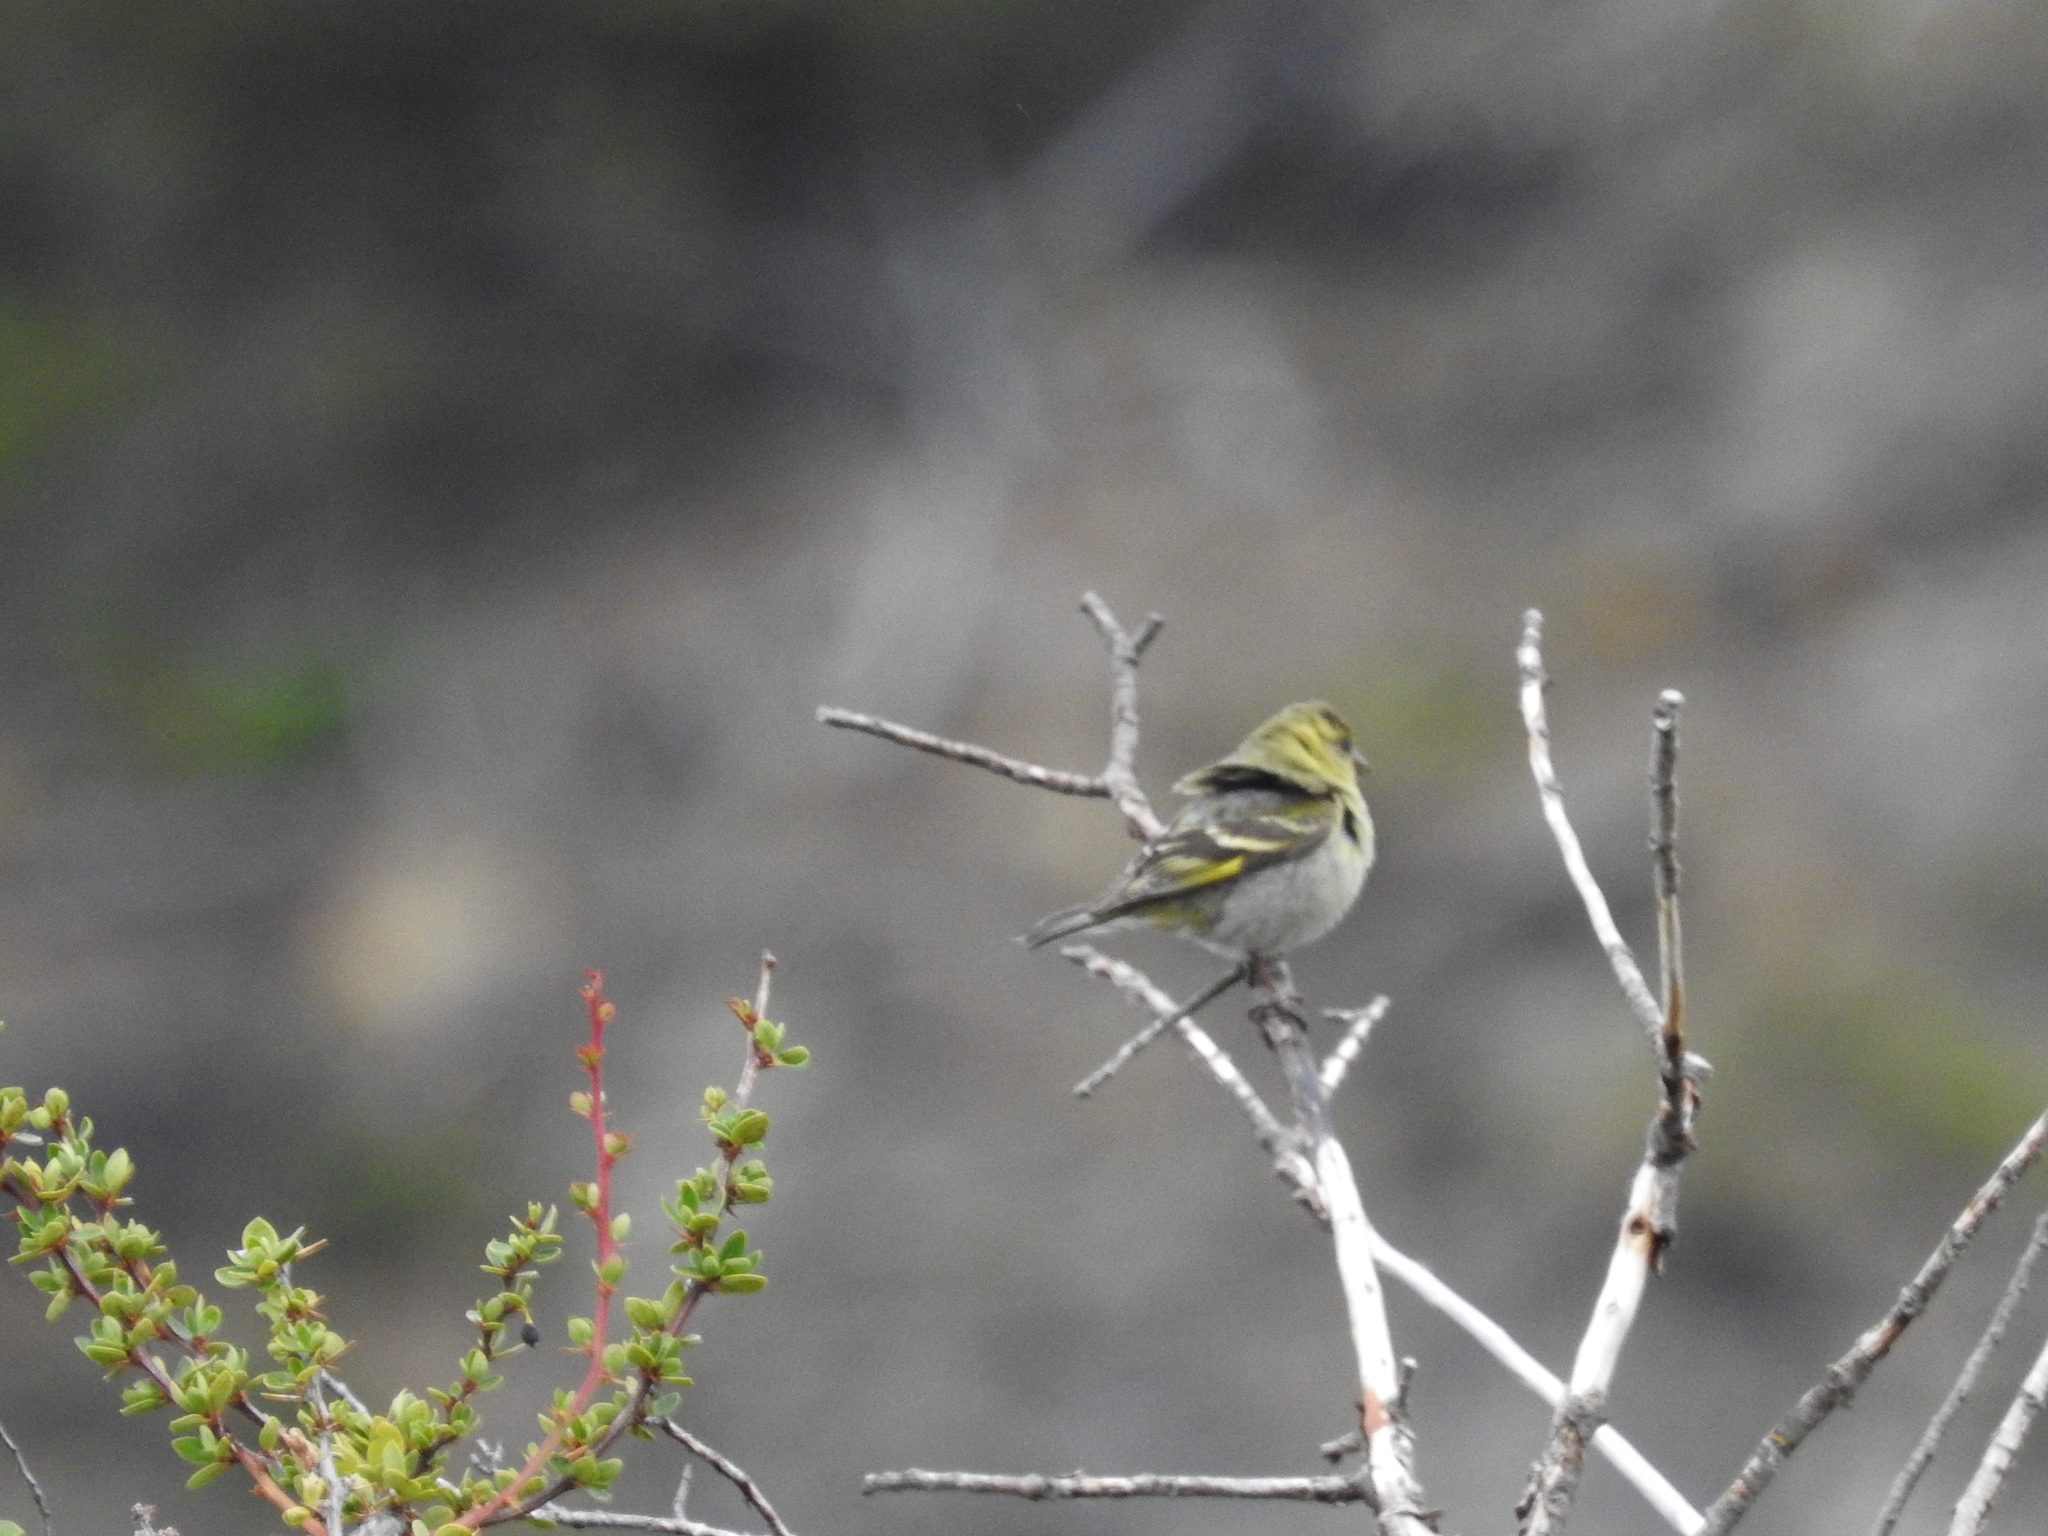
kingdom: Animalia
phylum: Chordata
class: Aves
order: Passeriformes
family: Fringillidae
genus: Spinus
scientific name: Spinus barbatus
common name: Black-chinned siskin
